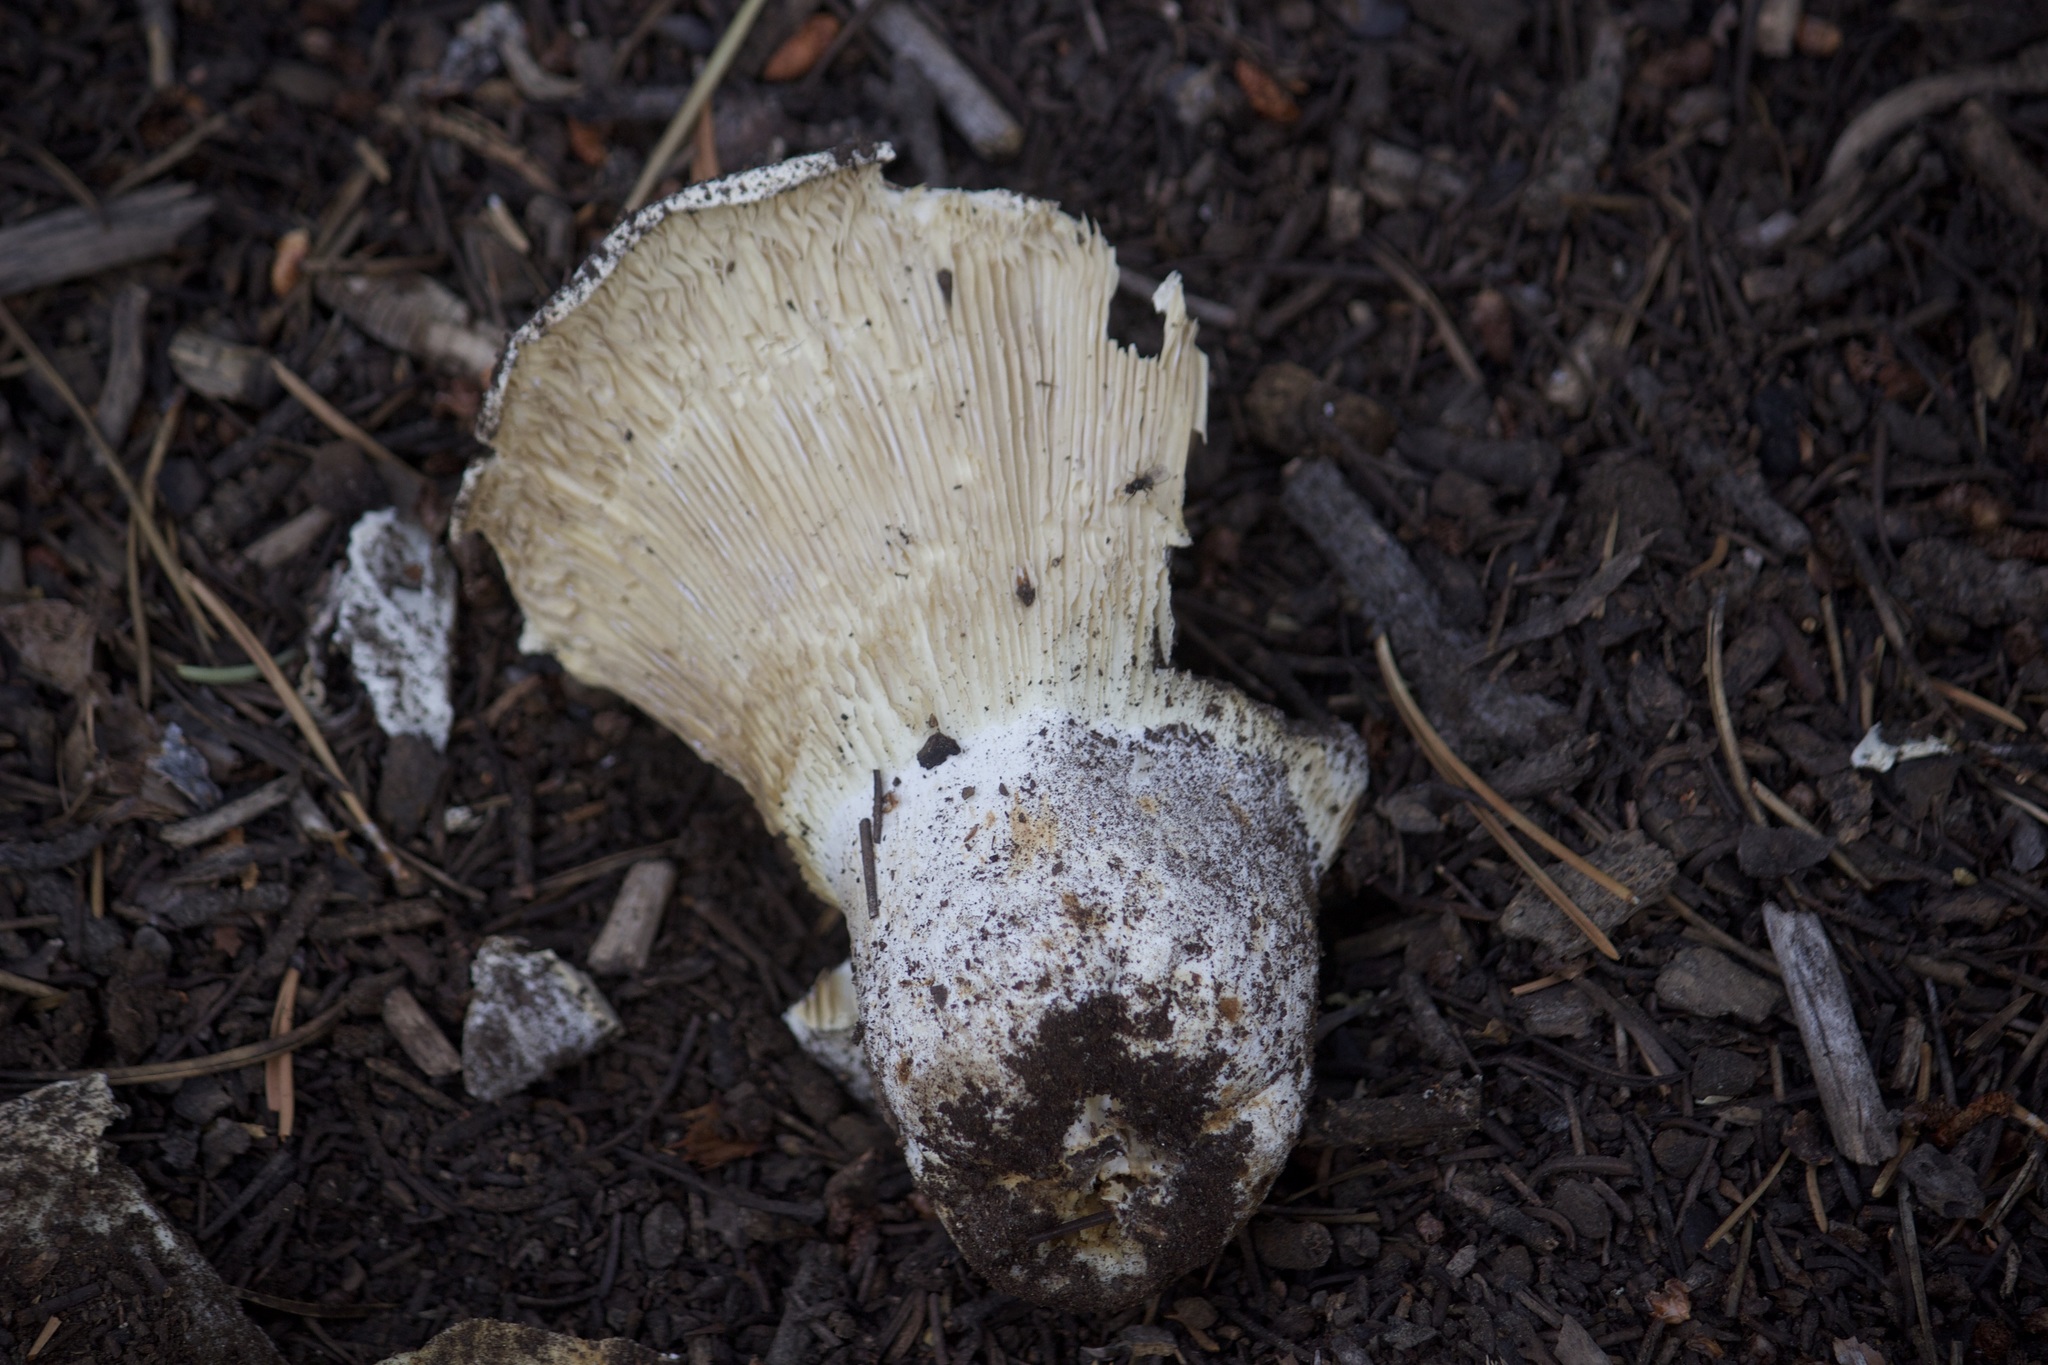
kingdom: Fungi
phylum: Basidiomycota
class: Agaricomycetes
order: Russulales
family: Russulaceae
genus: Russula
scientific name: Russula brevipes
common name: Short-stemmed russula
